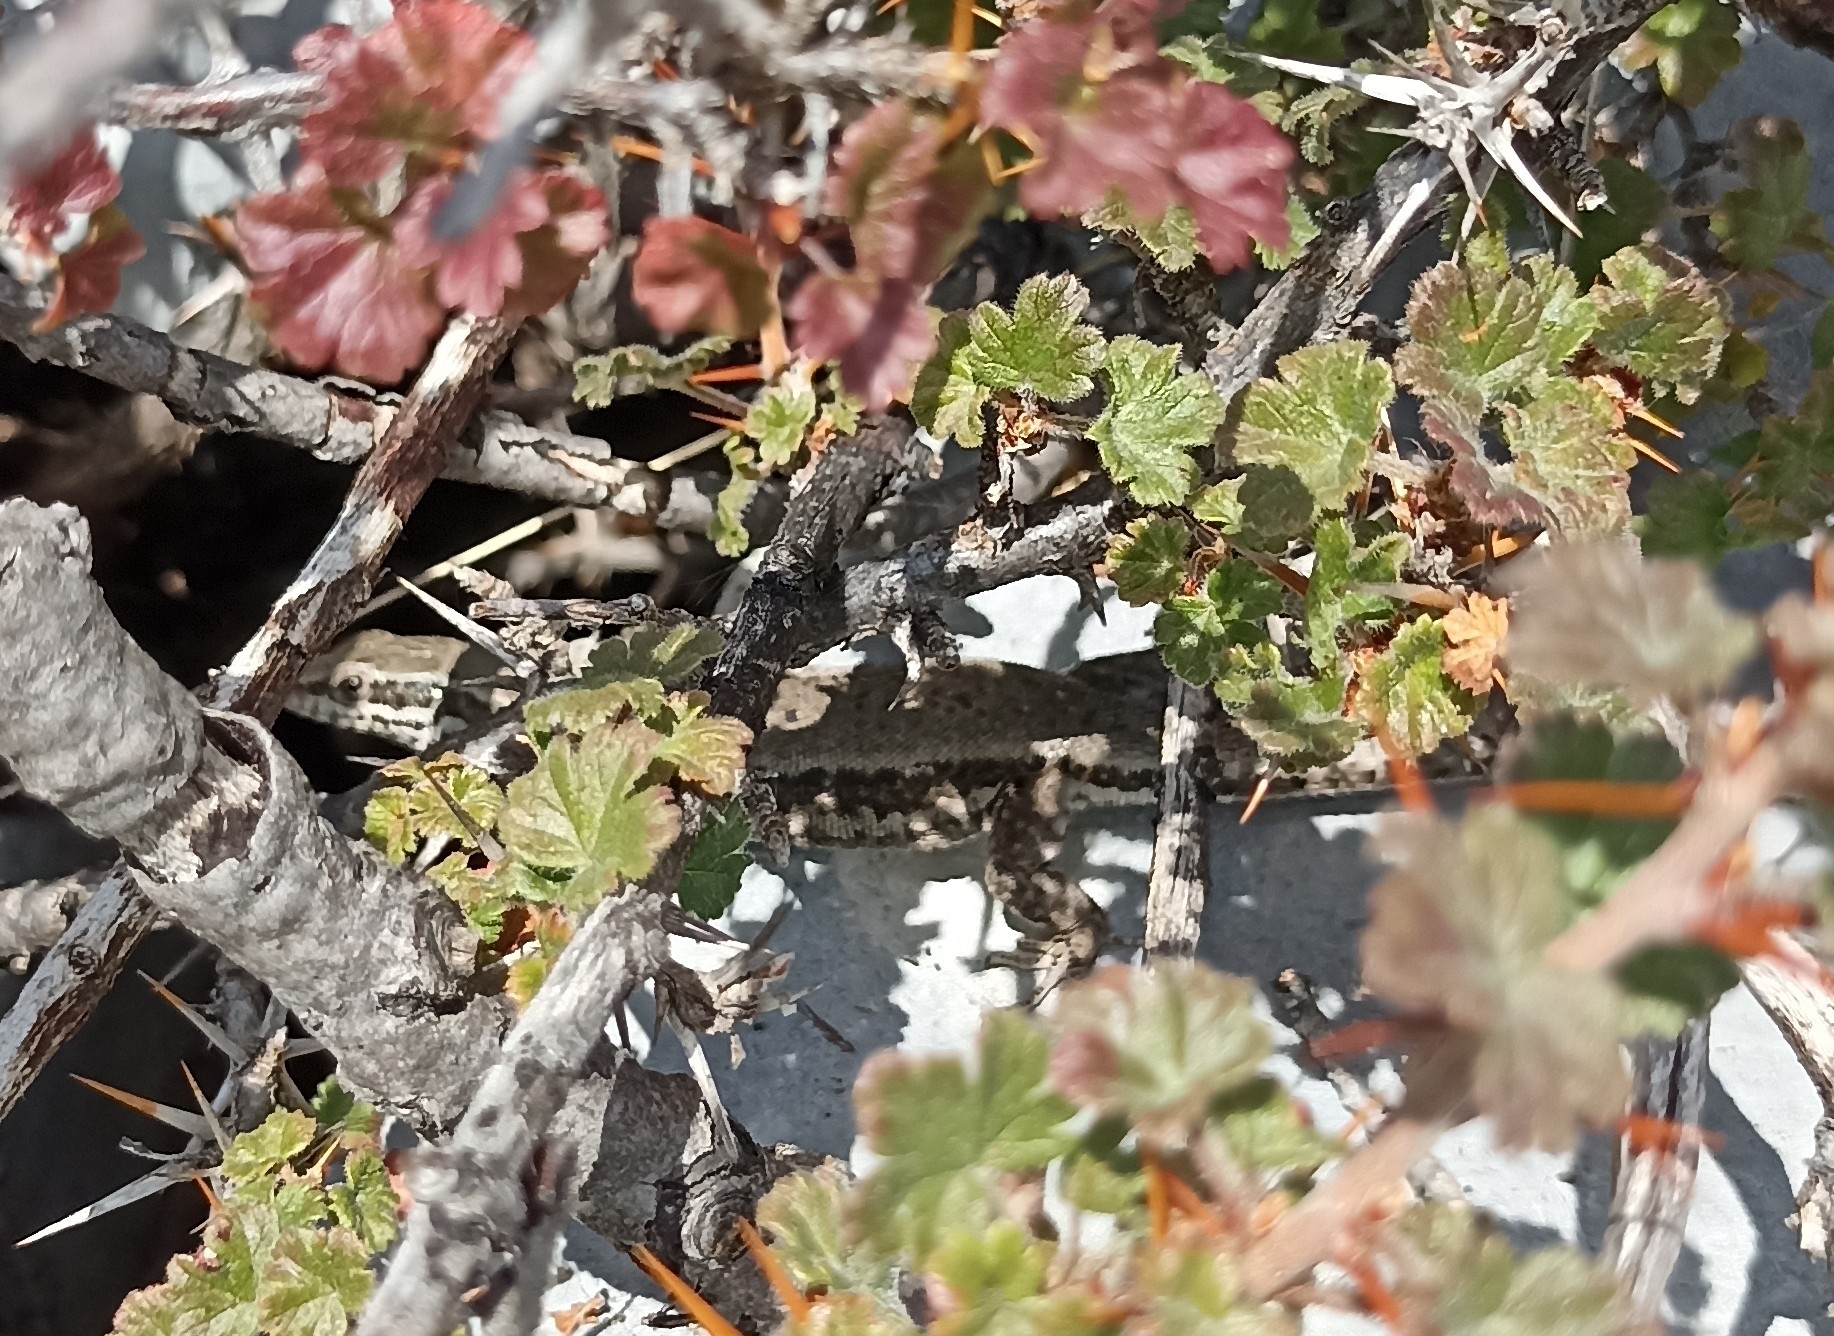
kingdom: Animalia
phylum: Chordata
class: Squamata
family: Lacertidae
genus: Podarcis
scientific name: Podarcis muralis
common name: Common wall lizard
